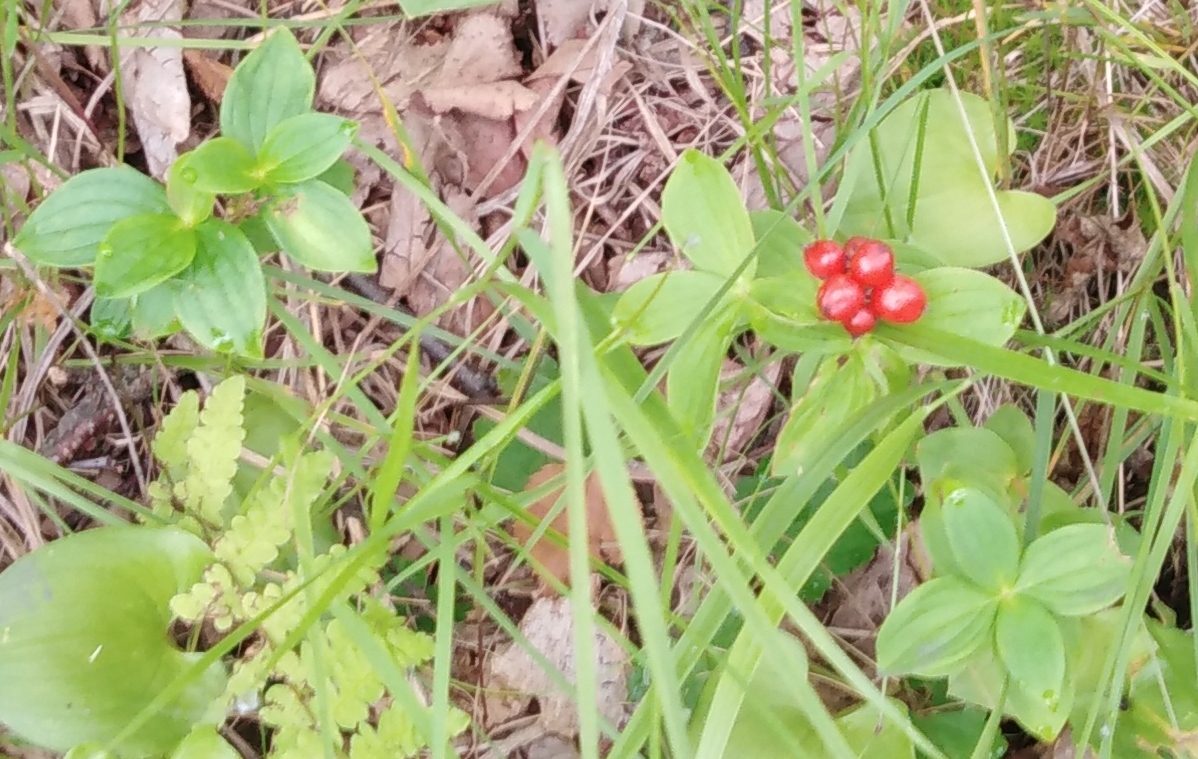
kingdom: Plantae
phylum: Tracheophyta
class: Magnoliopsida
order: Cornales
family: Cornaceae
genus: Cornus
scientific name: Cornus suecica
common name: Dwarf cornel
